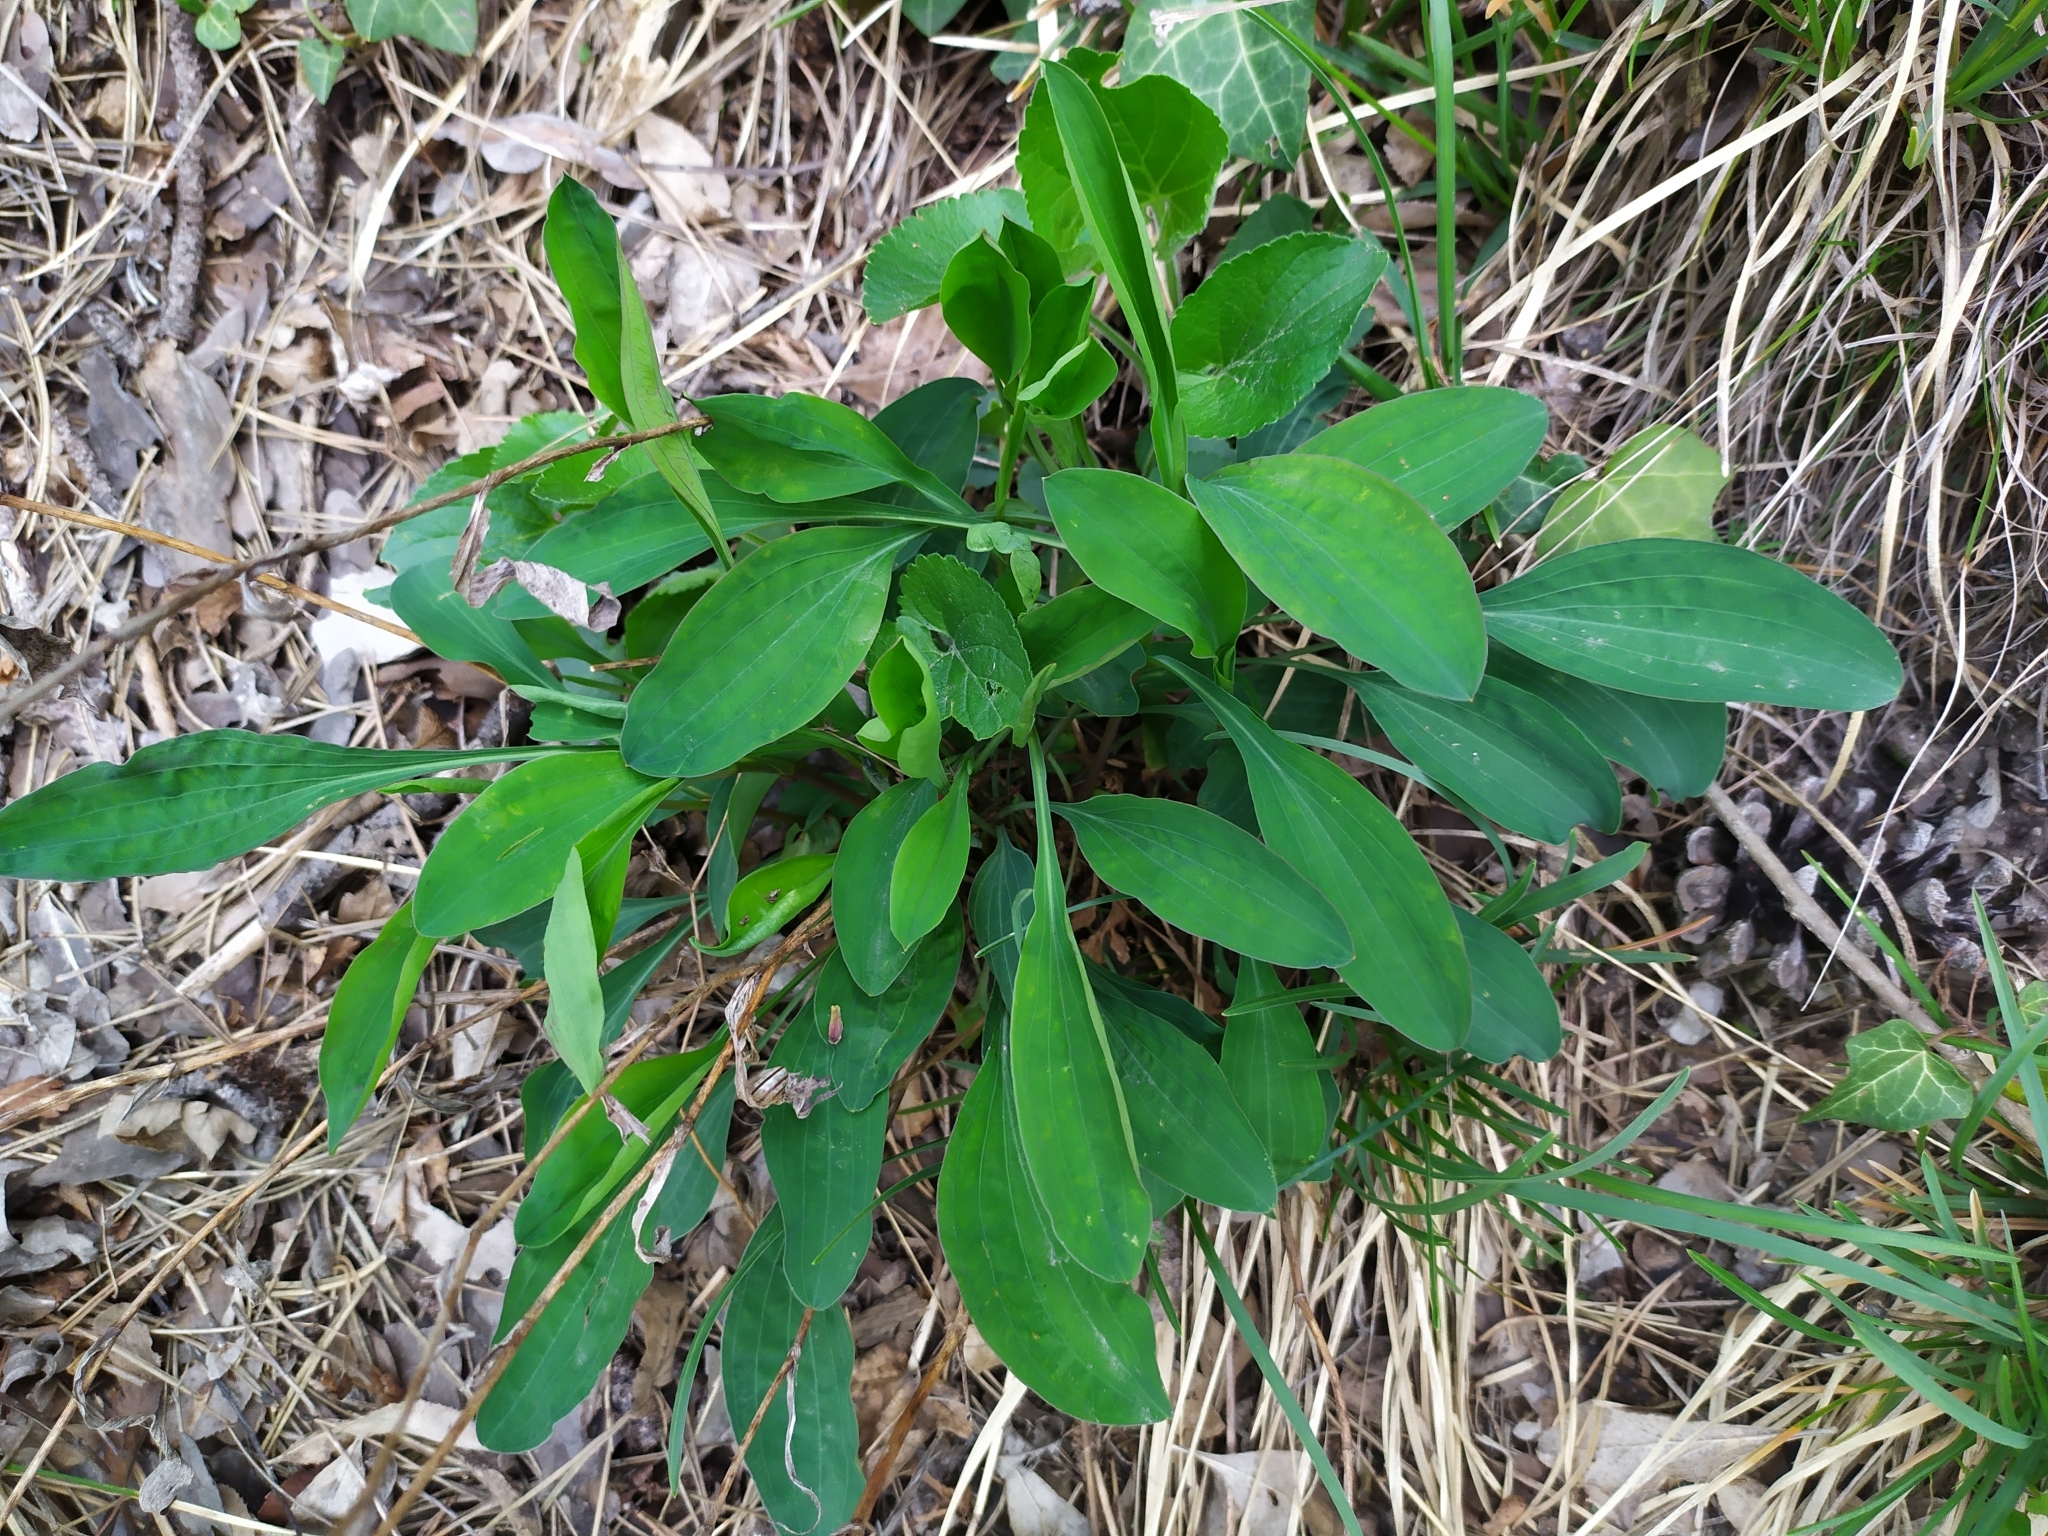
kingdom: Plantae
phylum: Tracheophyta
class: Magnoliopsida
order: Apiales
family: Apiaceae
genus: Bupleurum
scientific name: Bupleurum falcatum
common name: Sickle-leaved hare's-ear
